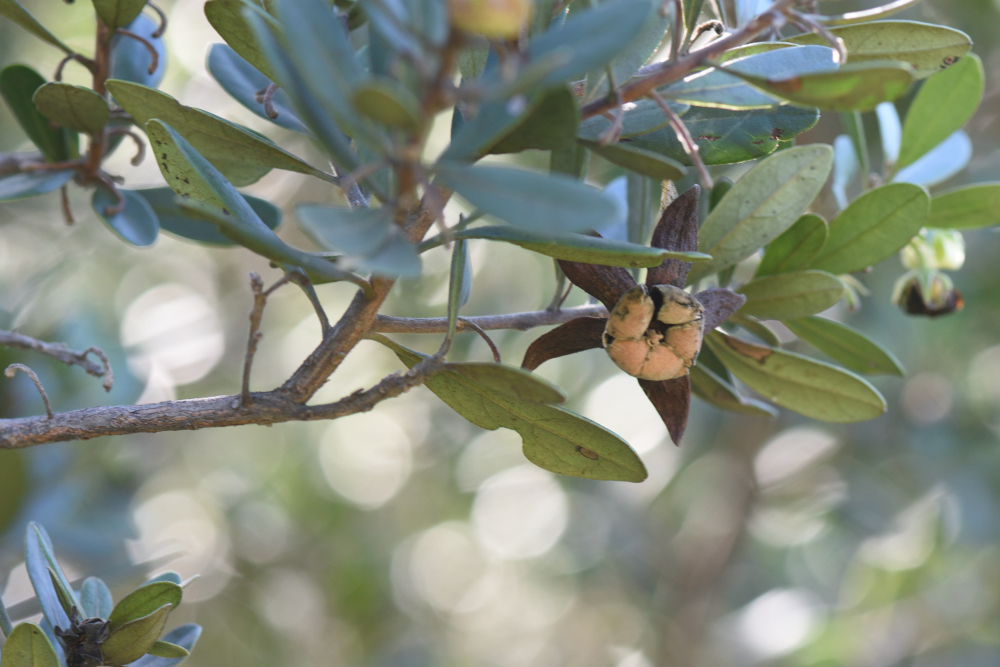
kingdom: Plantae
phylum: Tracheophyta
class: Magnoliopsida
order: Ericales
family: Ebenaceae
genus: Diospyros
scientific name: Diospyros dichrophylla
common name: Common star-apple
